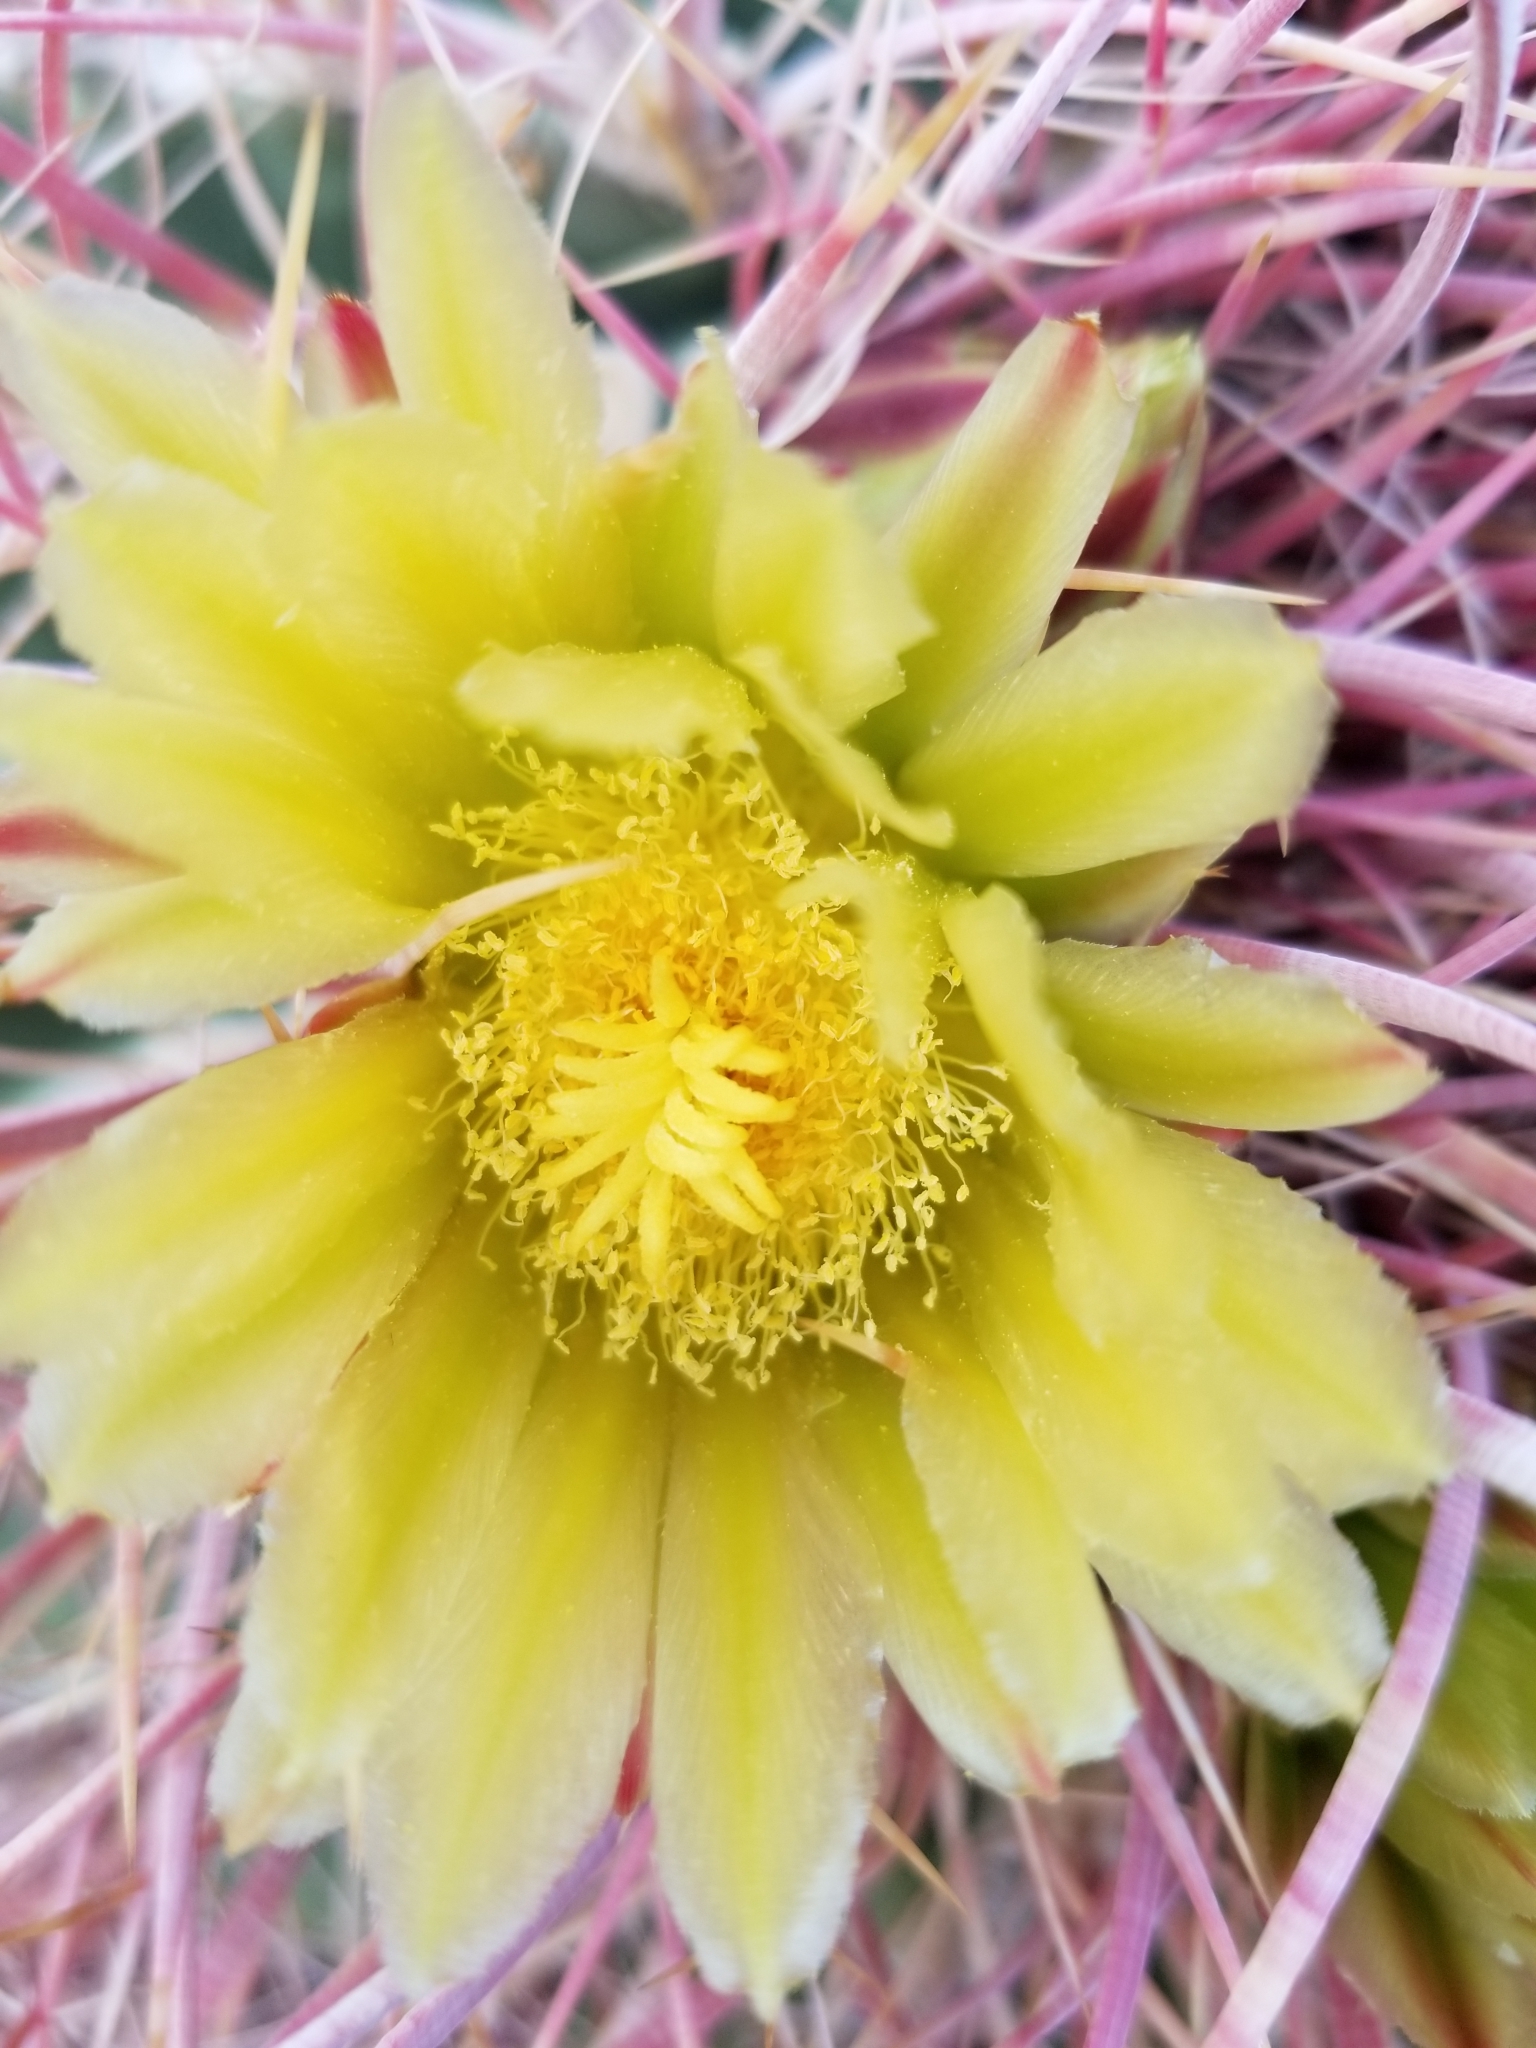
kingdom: Plantae
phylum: Tracheophyta
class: Magnoliopsida
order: Caryophyllales
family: Cactaceae
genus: Ferocactus
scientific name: Ferocactus cylindraceus
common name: California barrel cactus
